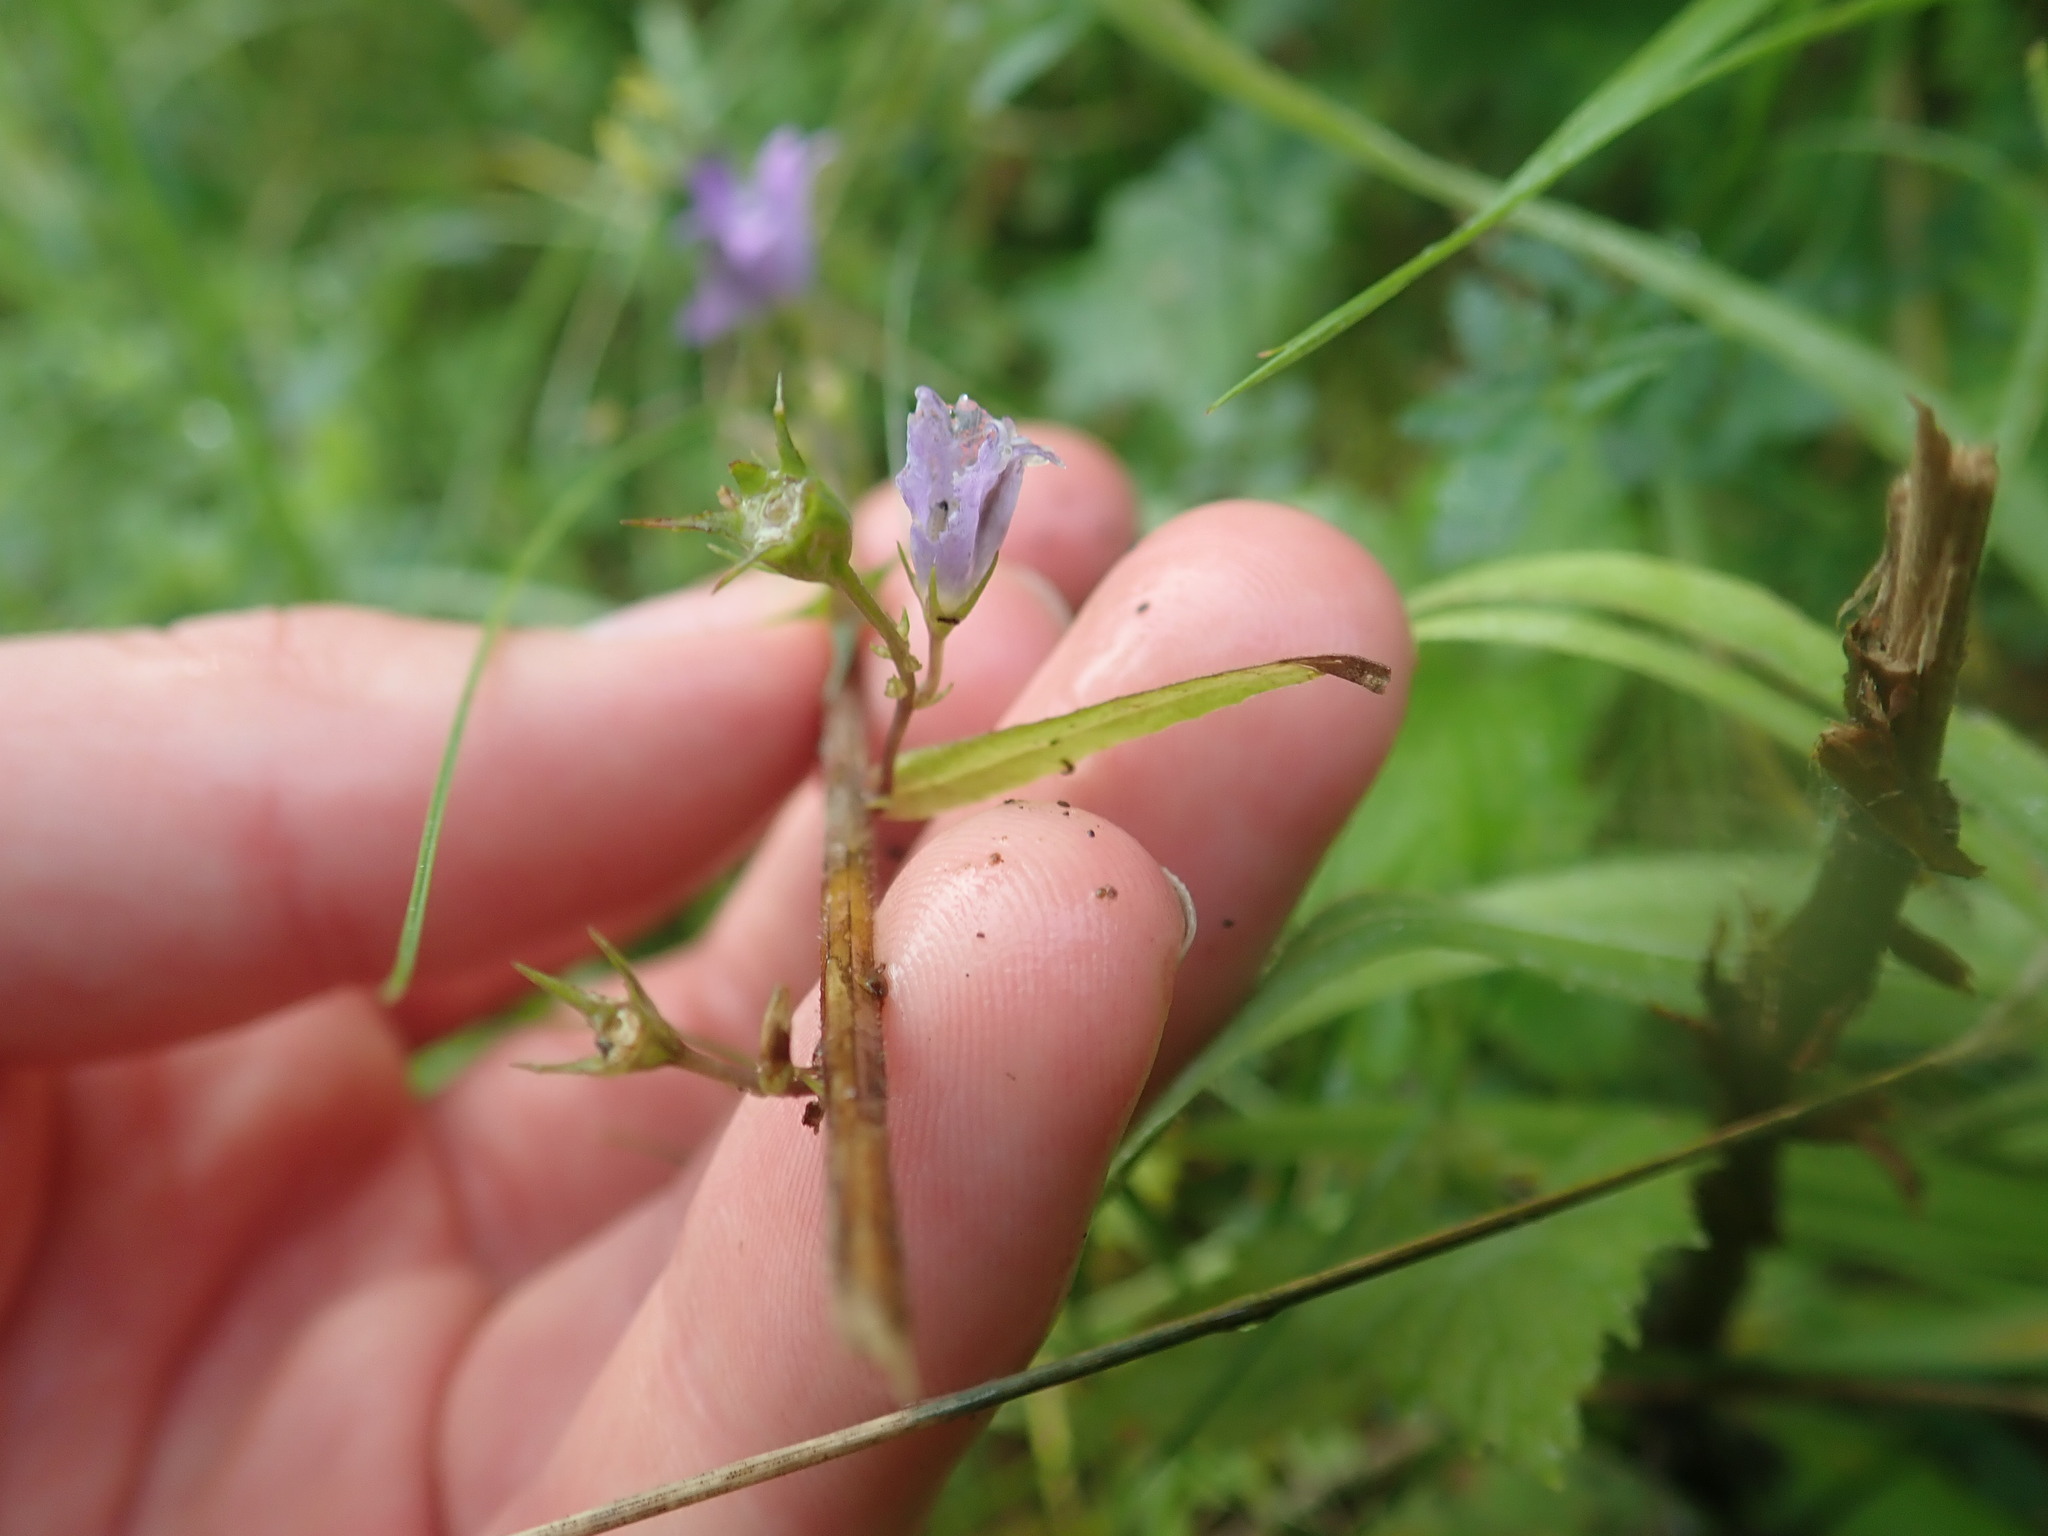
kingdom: Plantae
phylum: Tracheophyta
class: Magnoliopsida
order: Asterales
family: Campanulaceae
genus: Campanula
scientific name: Campanula rapunculus
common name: Rampion bellflower
